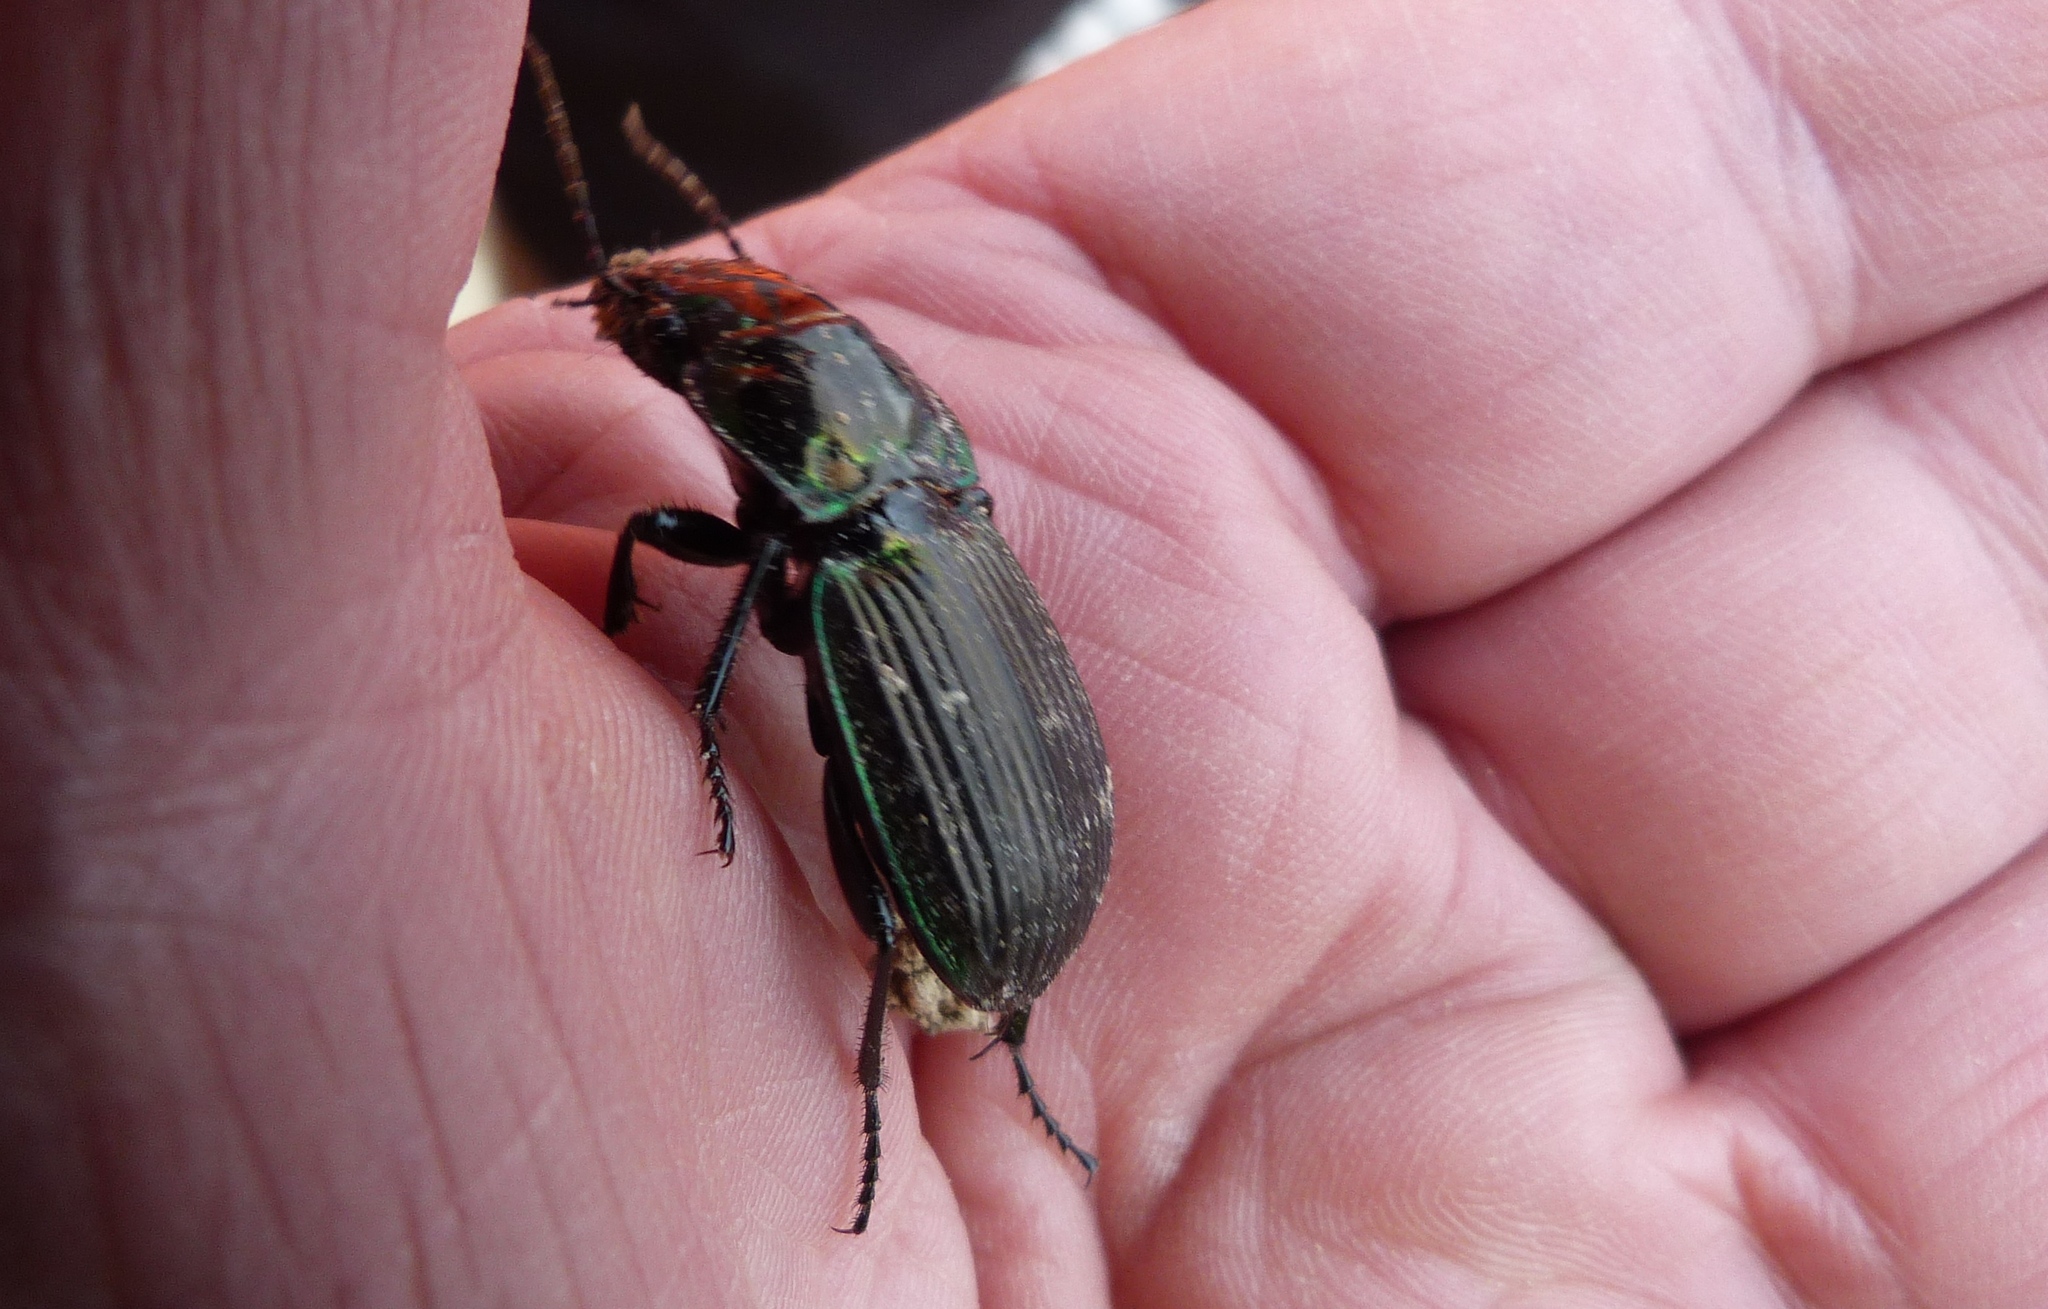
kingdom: Animalia
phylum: Arthropoda
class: Insecta
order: Coleoptera
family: Carabidae
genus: Megadromus
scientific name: Megadromus antarcticus
